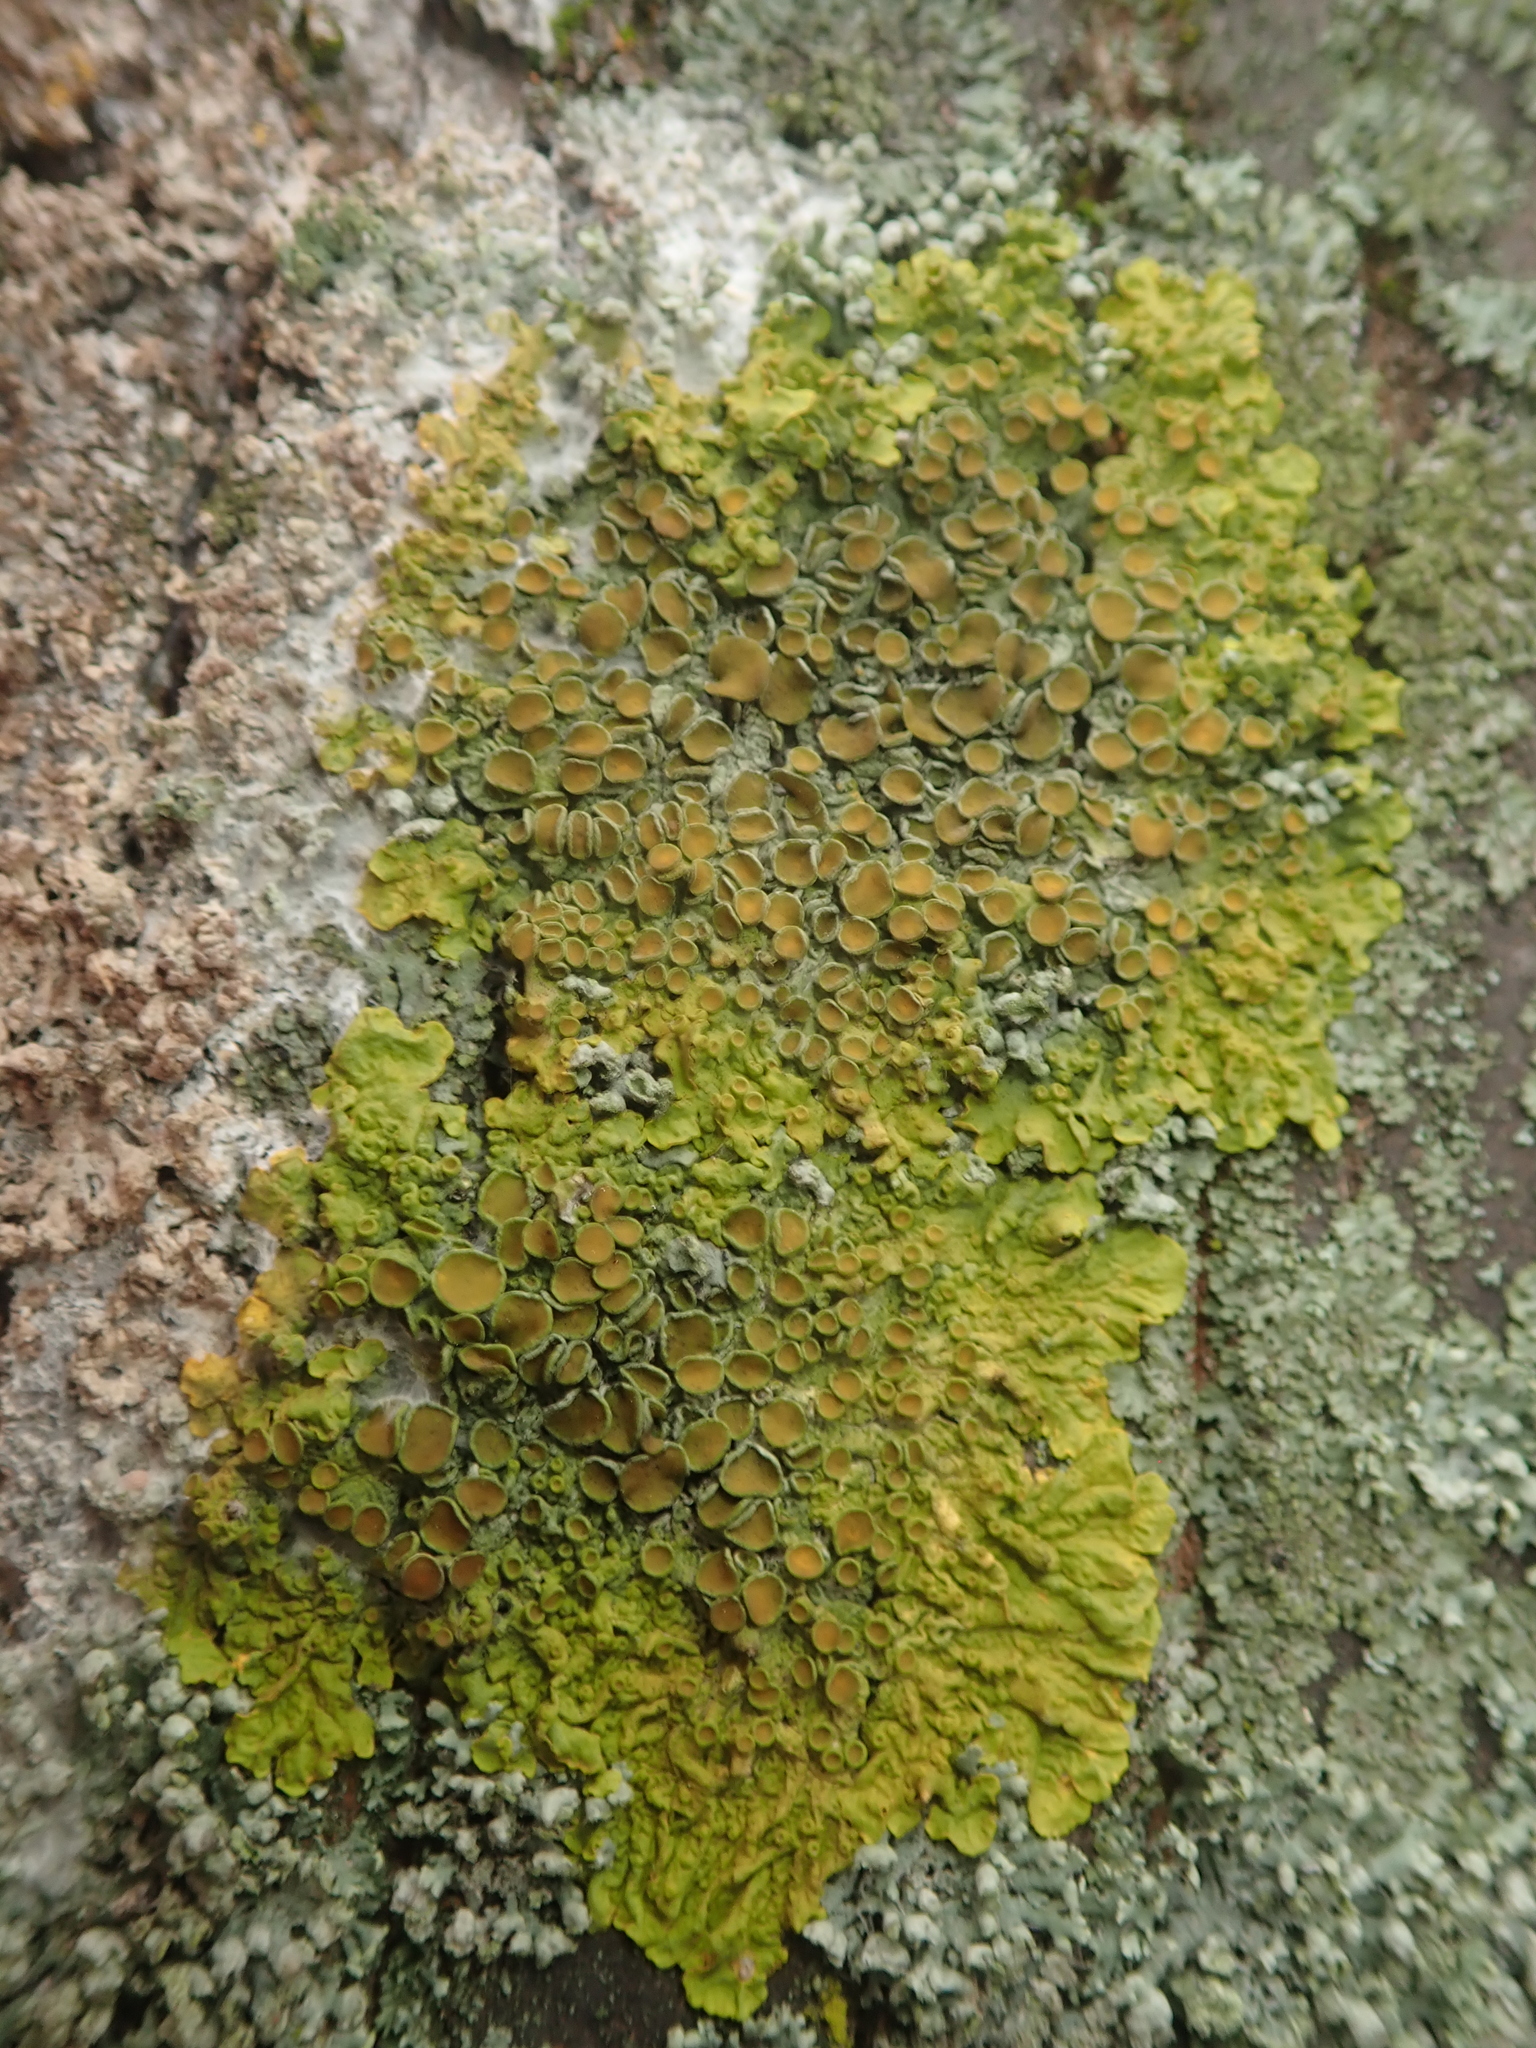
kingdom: Fungi
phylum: Ascomycota
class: Lecanoromycetes
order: Teloschistales
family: Teloschistaceae
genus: Xanthoria
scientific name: Xanthoria parietina
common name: Common orange lichen
